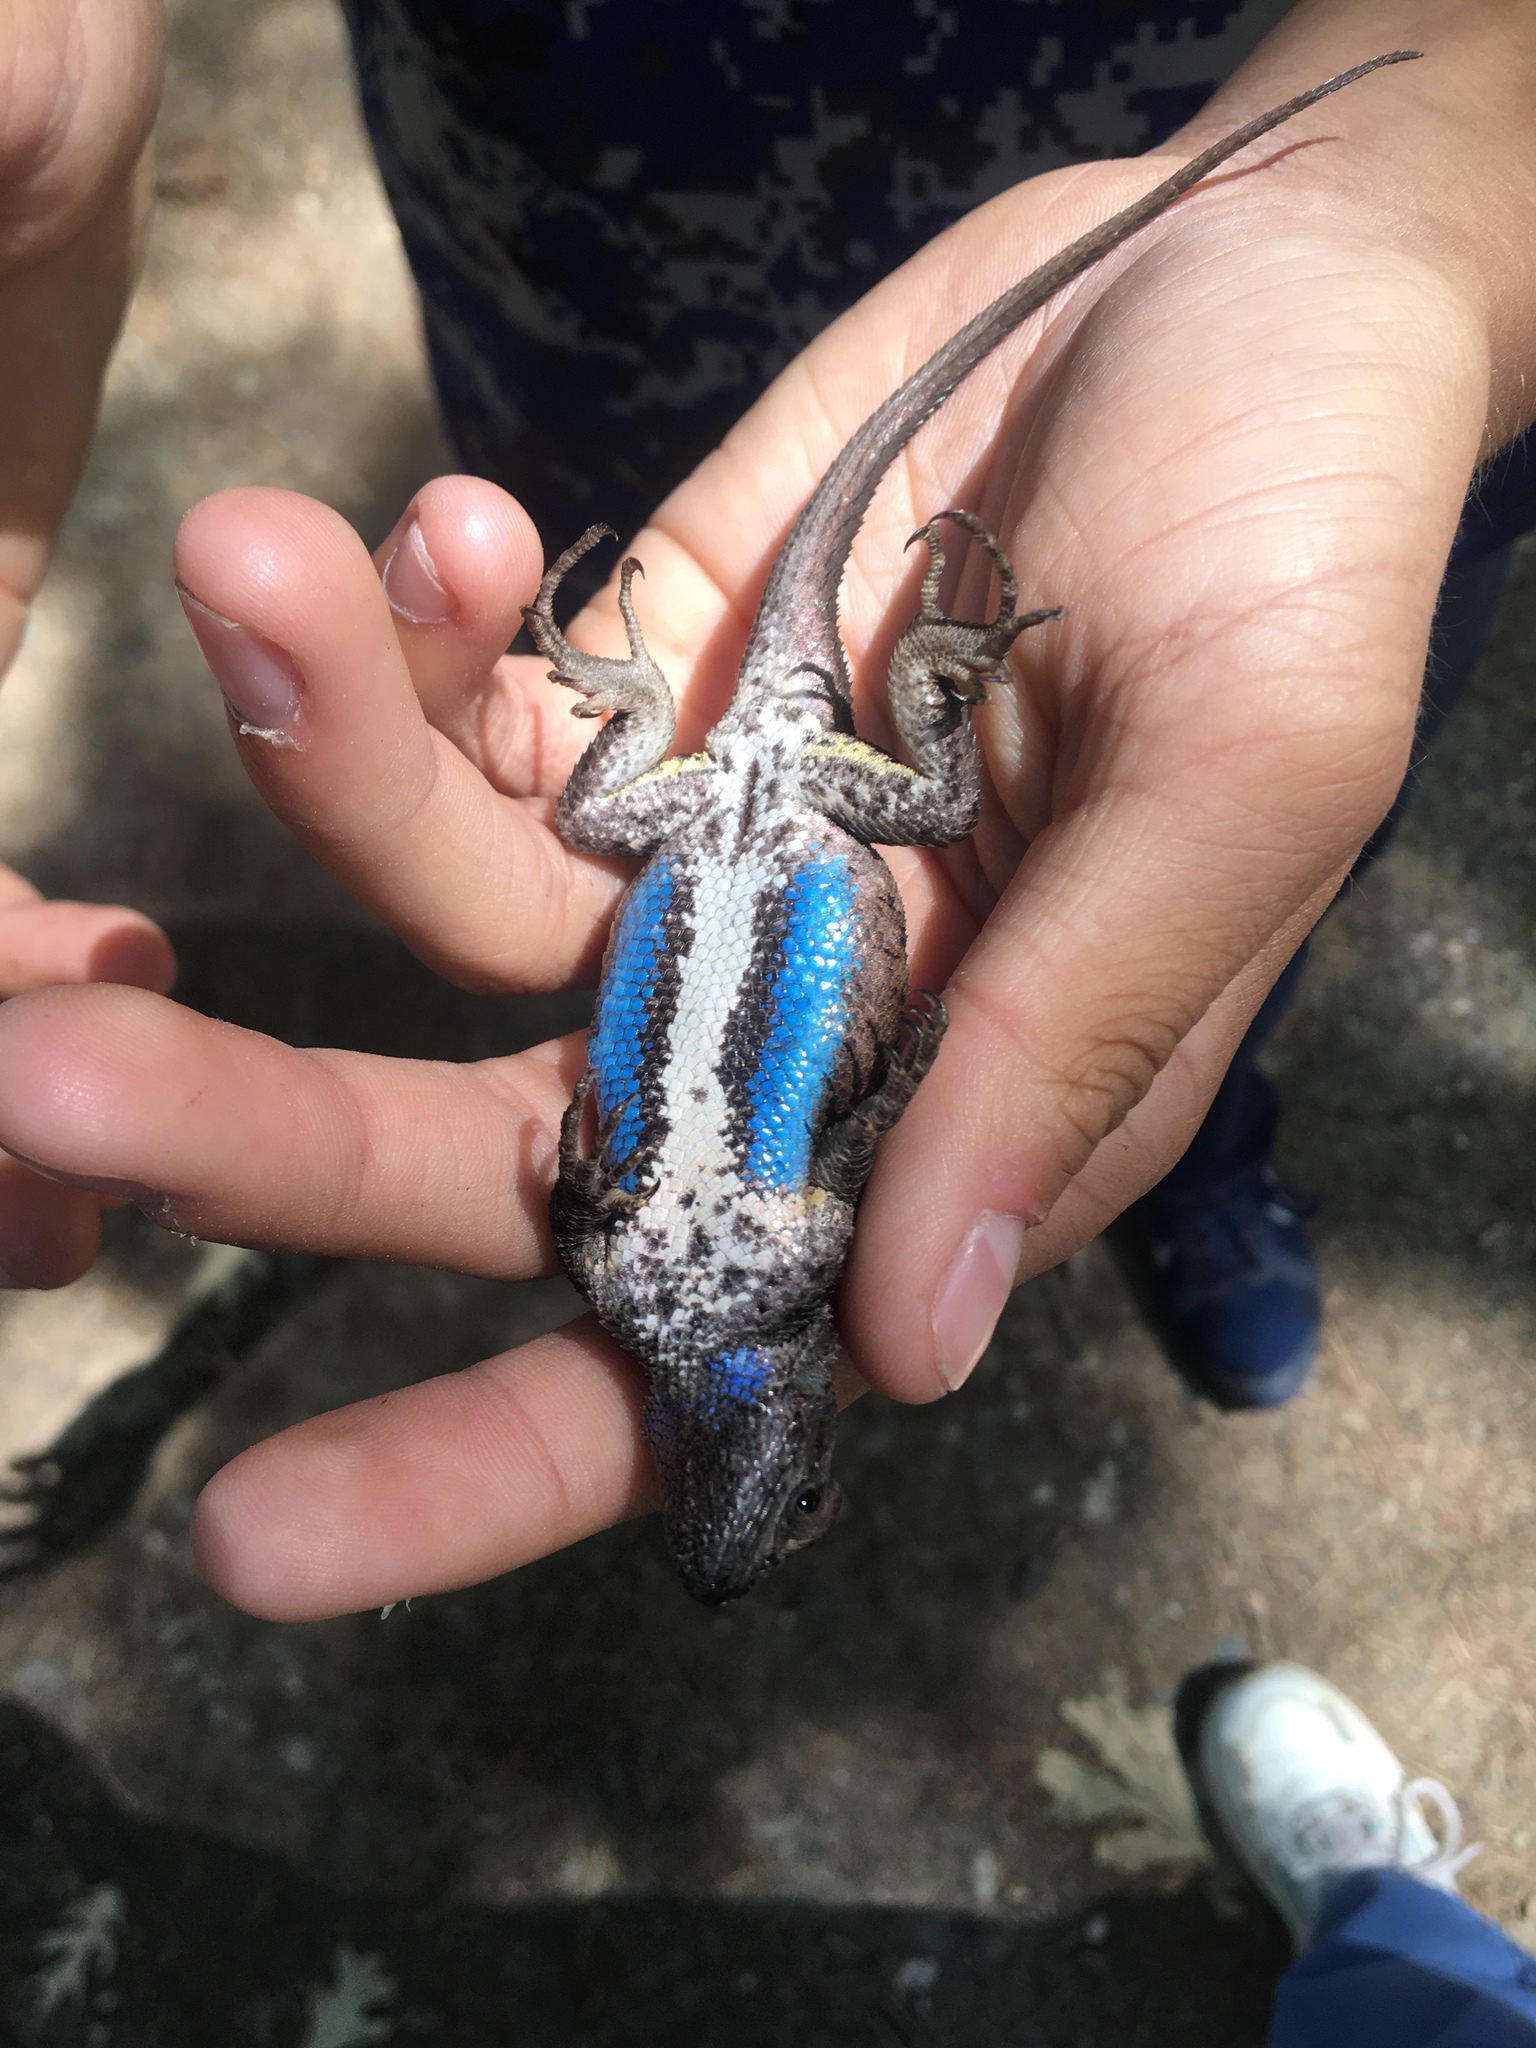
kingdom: Animalia
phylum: Chordata
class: Squamata
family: Phrynosomatidae
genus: Sceloporus
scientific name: Sceloporus occidentalis
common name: Western fence lizard
